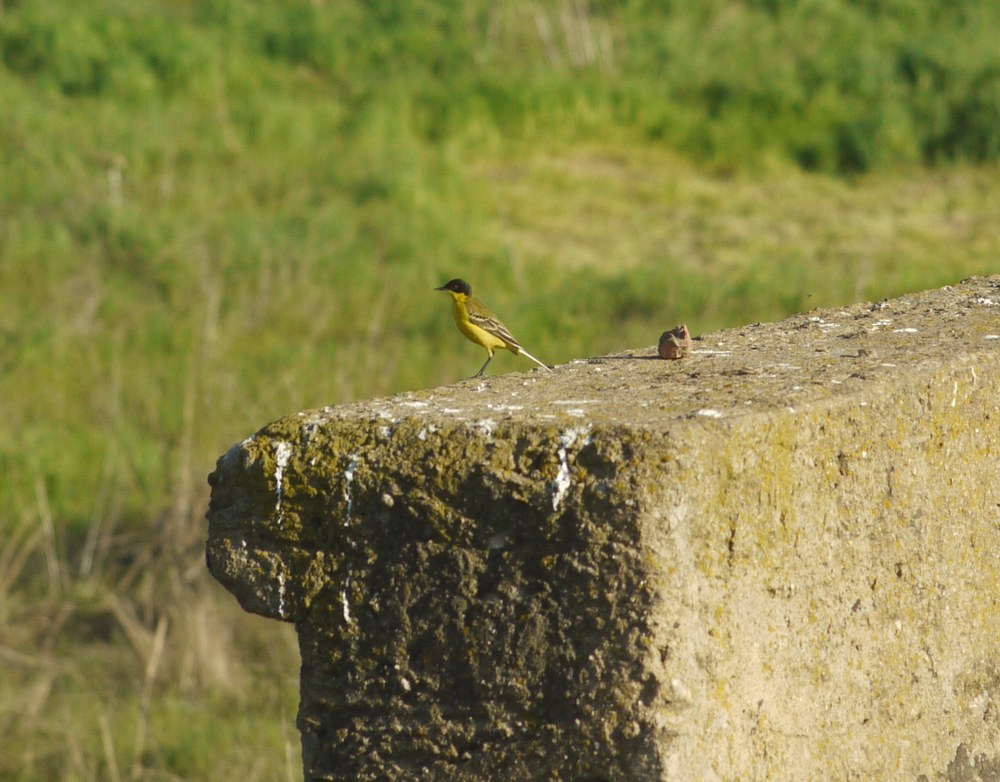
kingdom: Animalia
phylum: Chordata
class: Aves
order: Passeriformes
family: Motacillidae
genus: Motacilla
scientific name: Motacilla flava
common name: Western yellow wagtail
